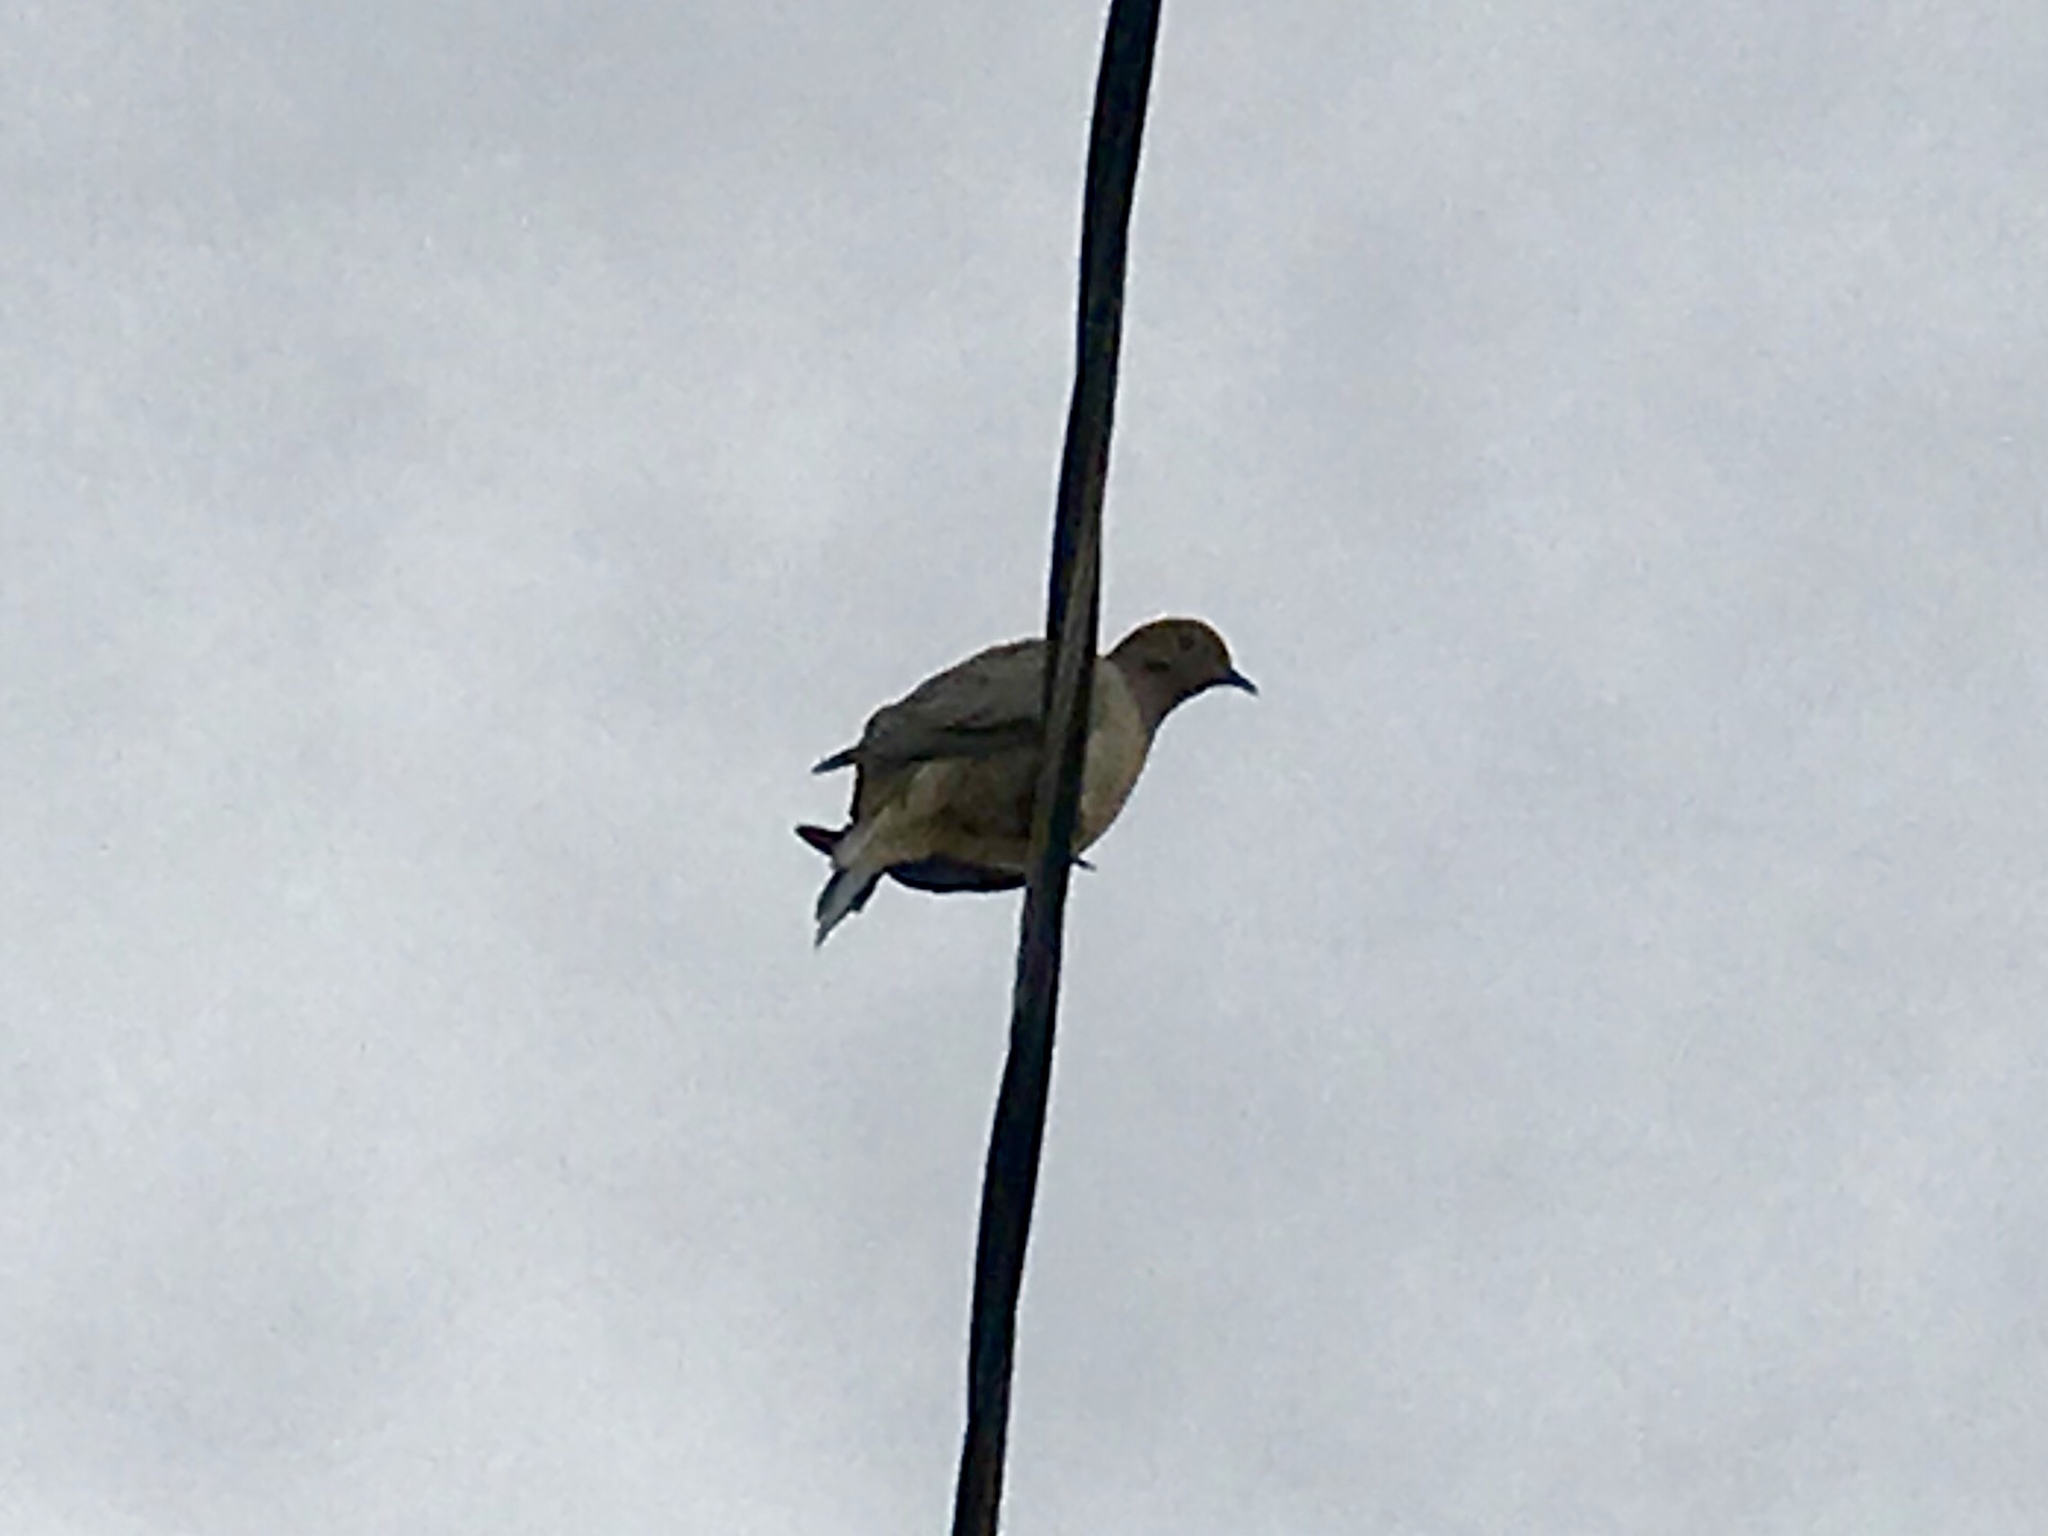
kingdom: Animalia
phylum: Chordata
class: Aves
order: Columbiformes
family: Columbidae
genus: Zenaida
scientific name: Zenaida macroura
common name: Mourning dove
